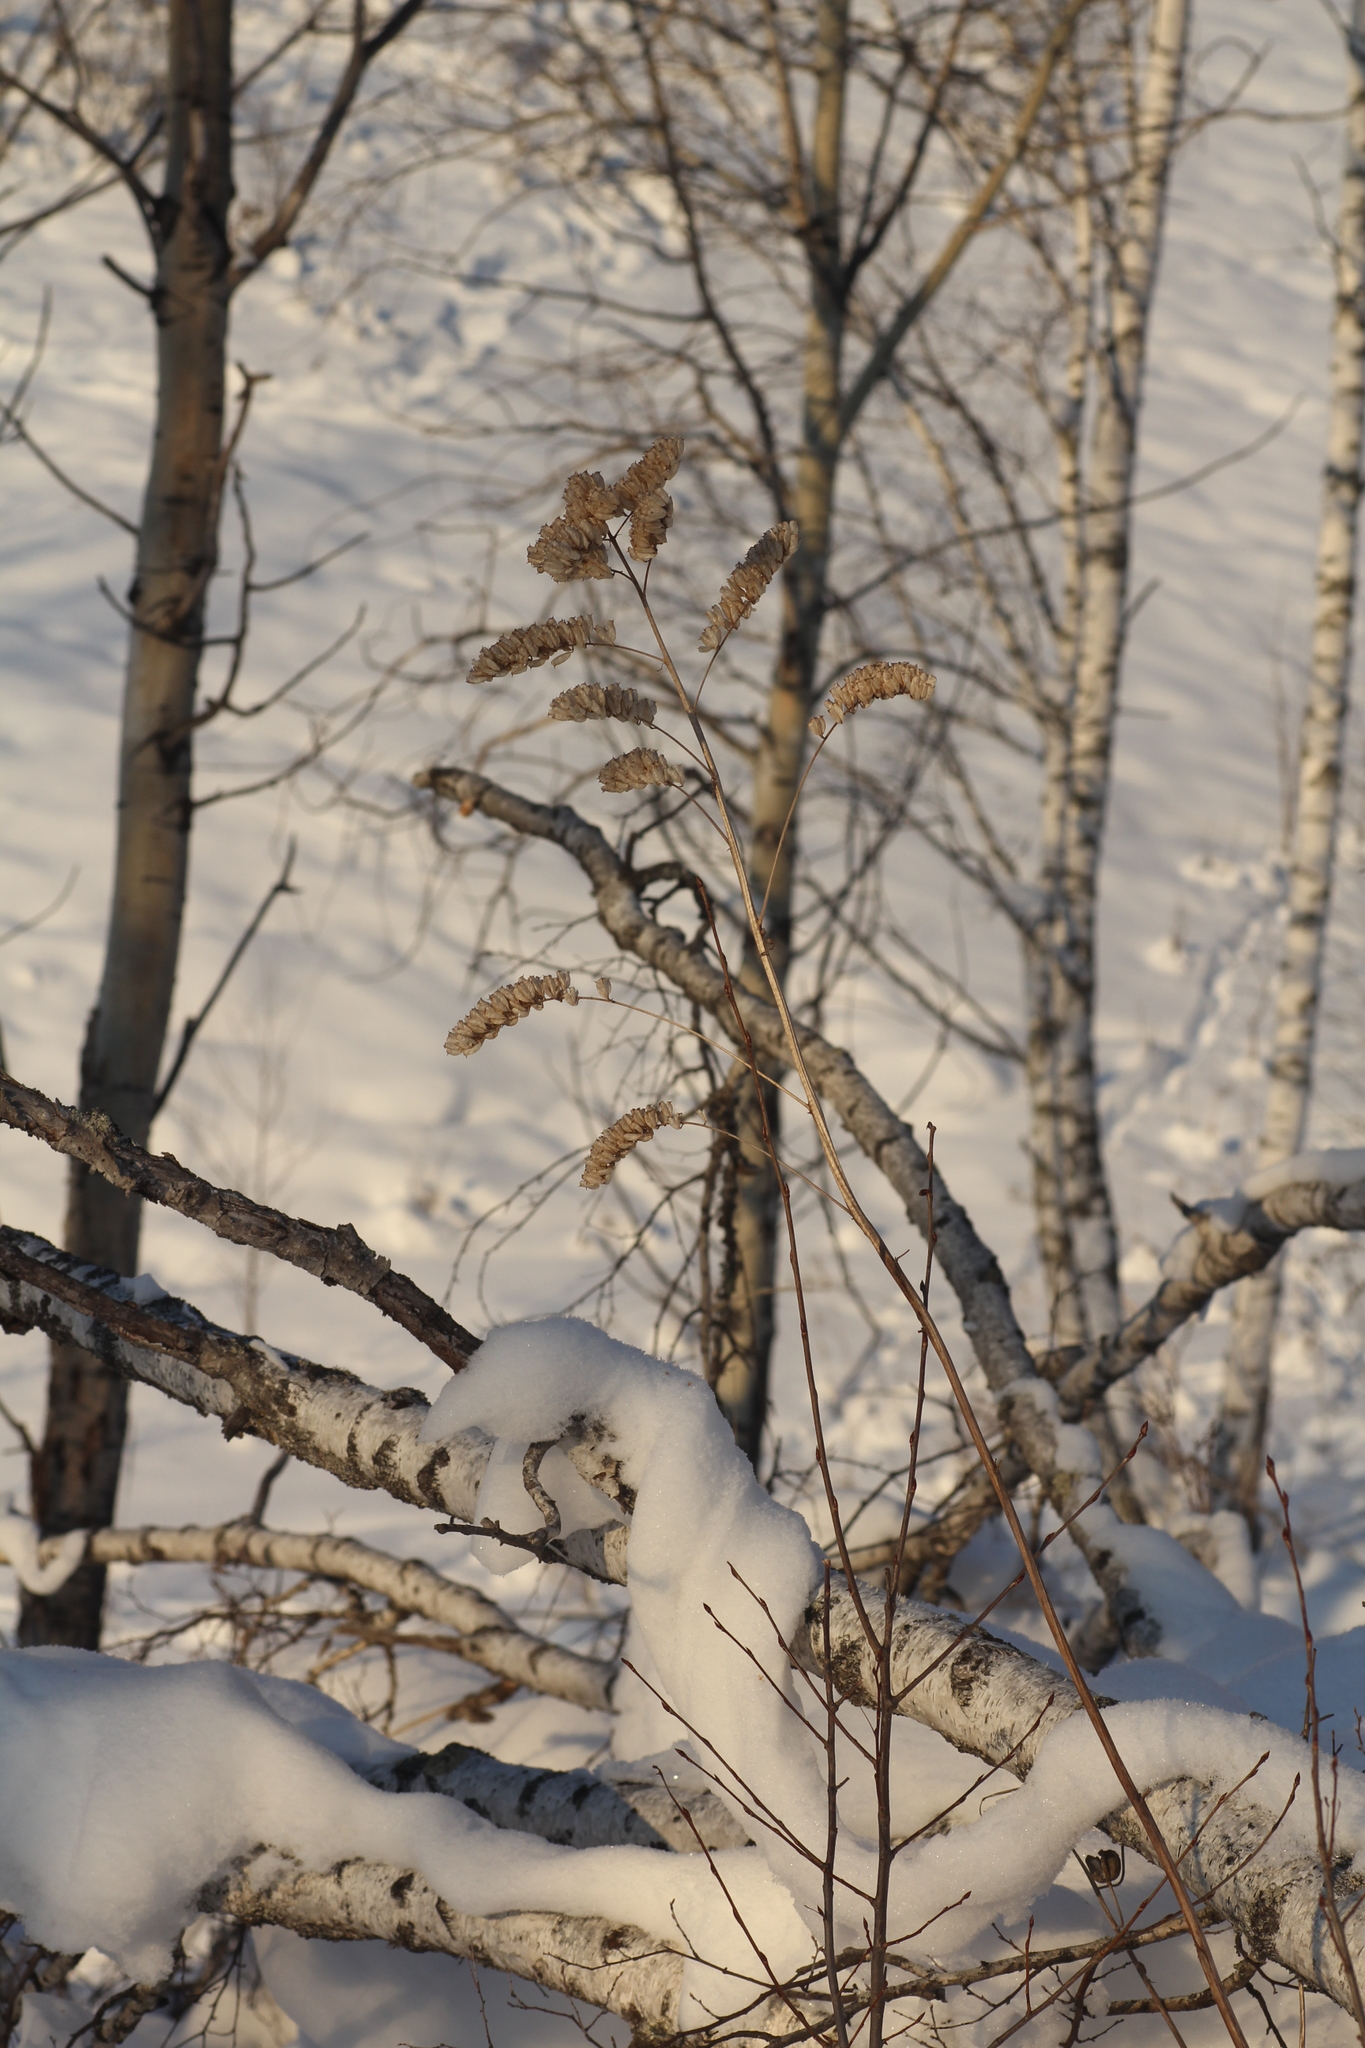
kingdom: Plantae
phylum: Tracheophyta
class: Magnoliopsida
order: Ranunculales
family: Ranunculaceae
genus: Actaea
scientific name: Actaea cimicifuga
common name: Chinese cimicifuga
